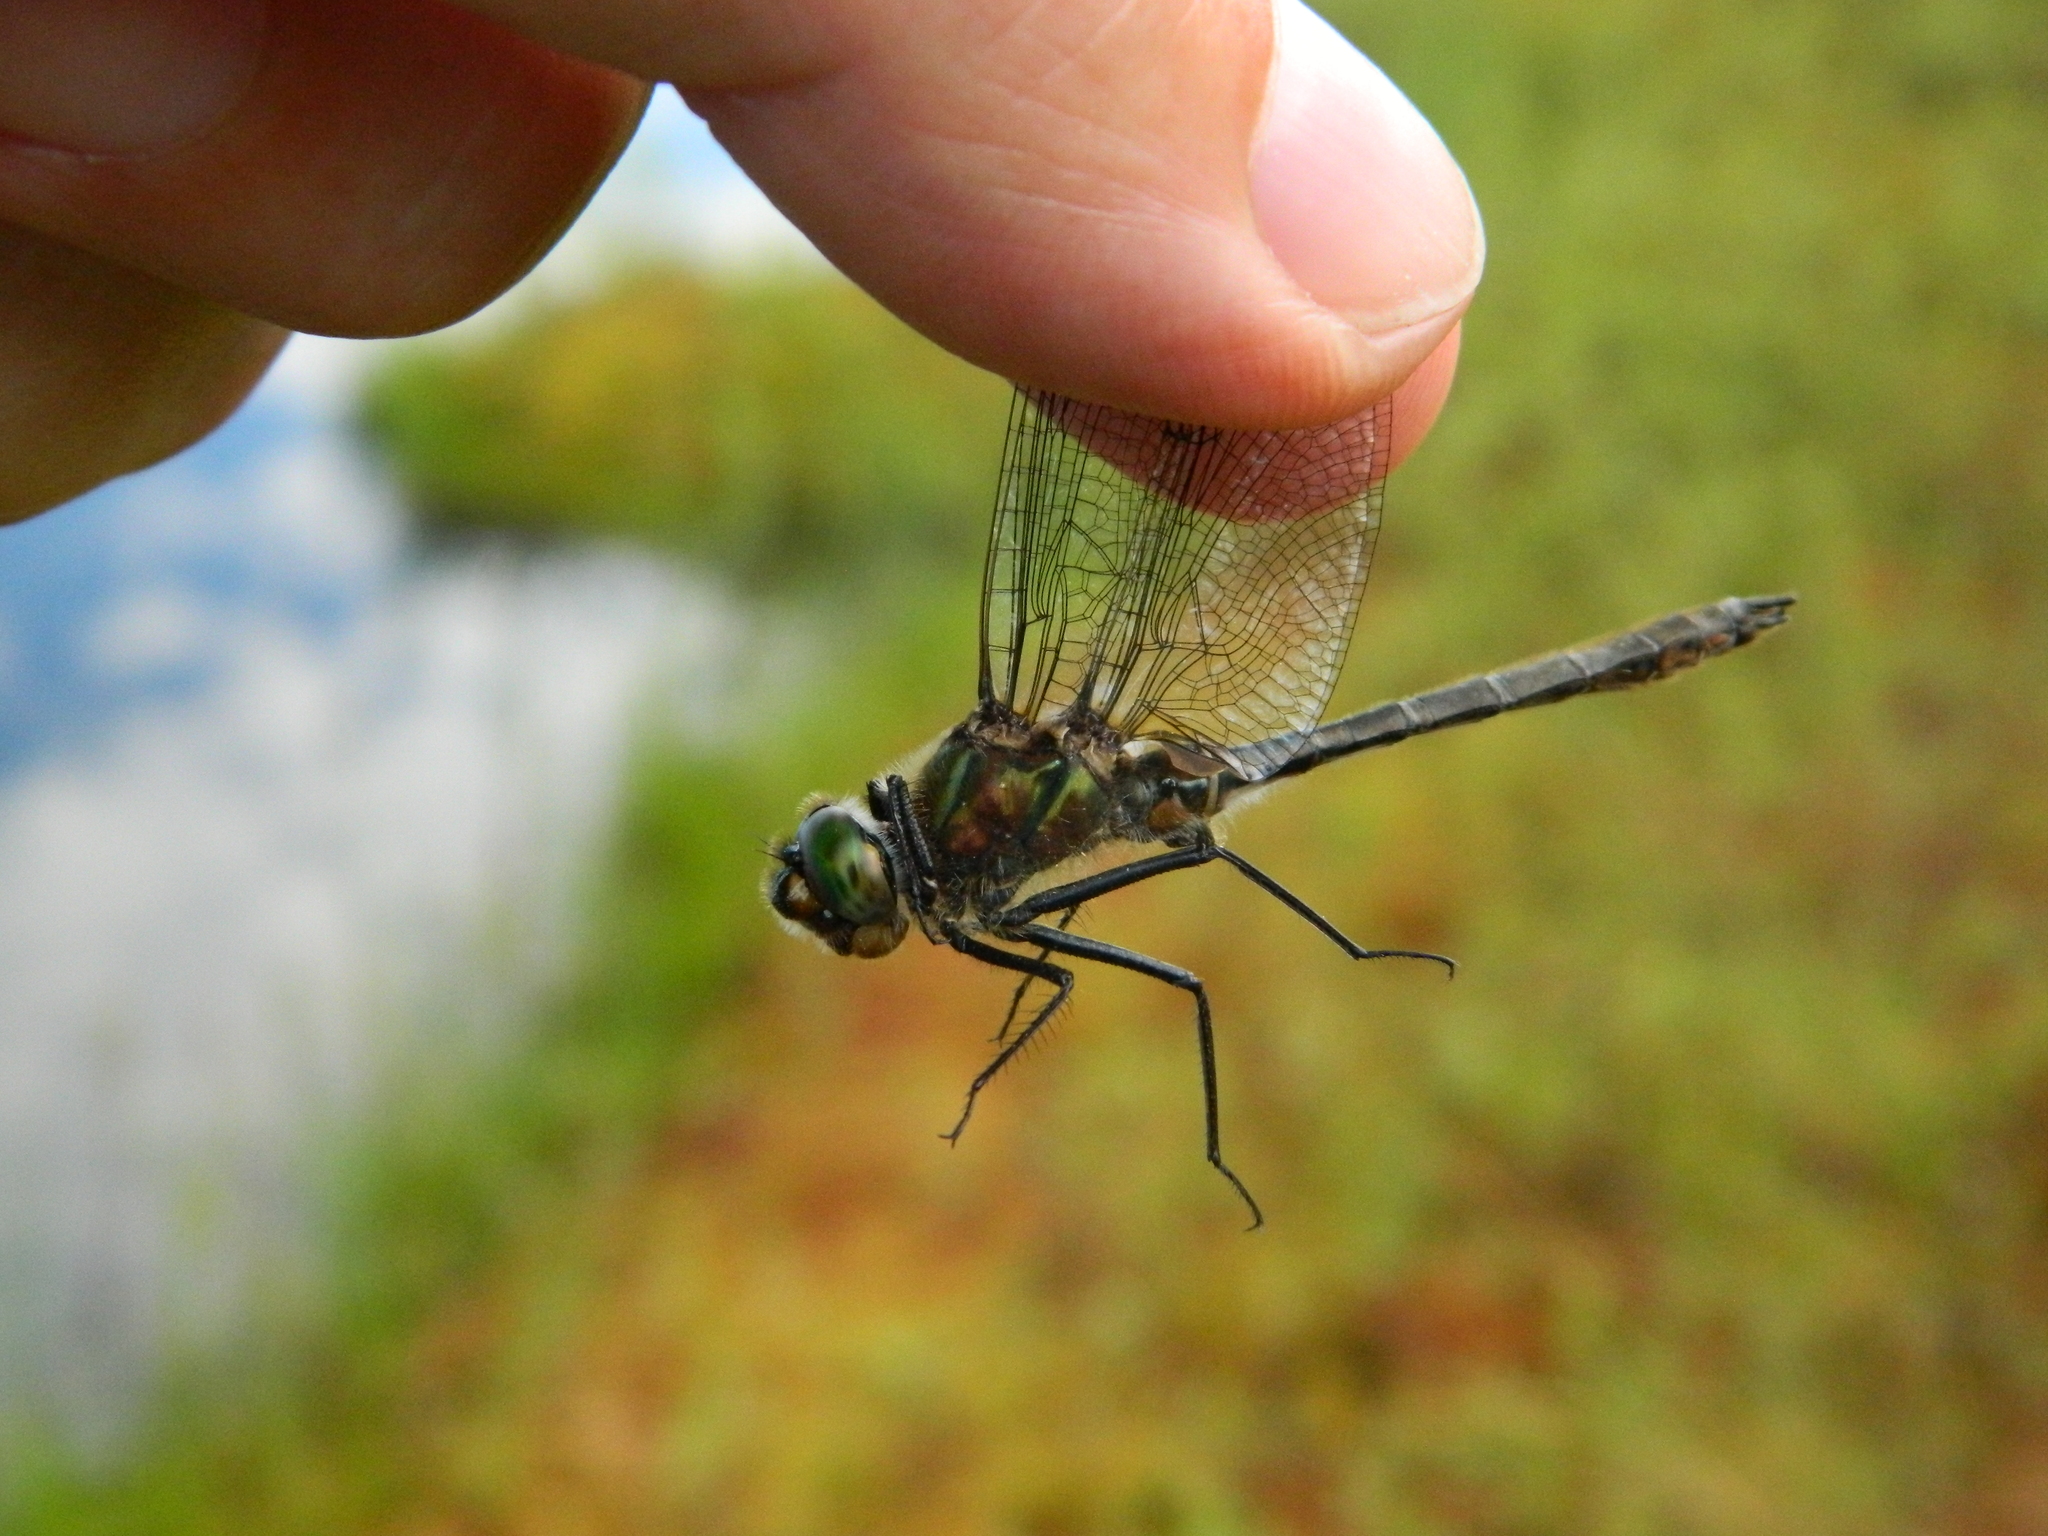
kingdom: Animalia
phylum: Arthropoda
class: Insecta
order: Odonata
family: Corduliidae
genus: Cordulia
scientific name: Cordulia shurtleffii
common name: American emerald
